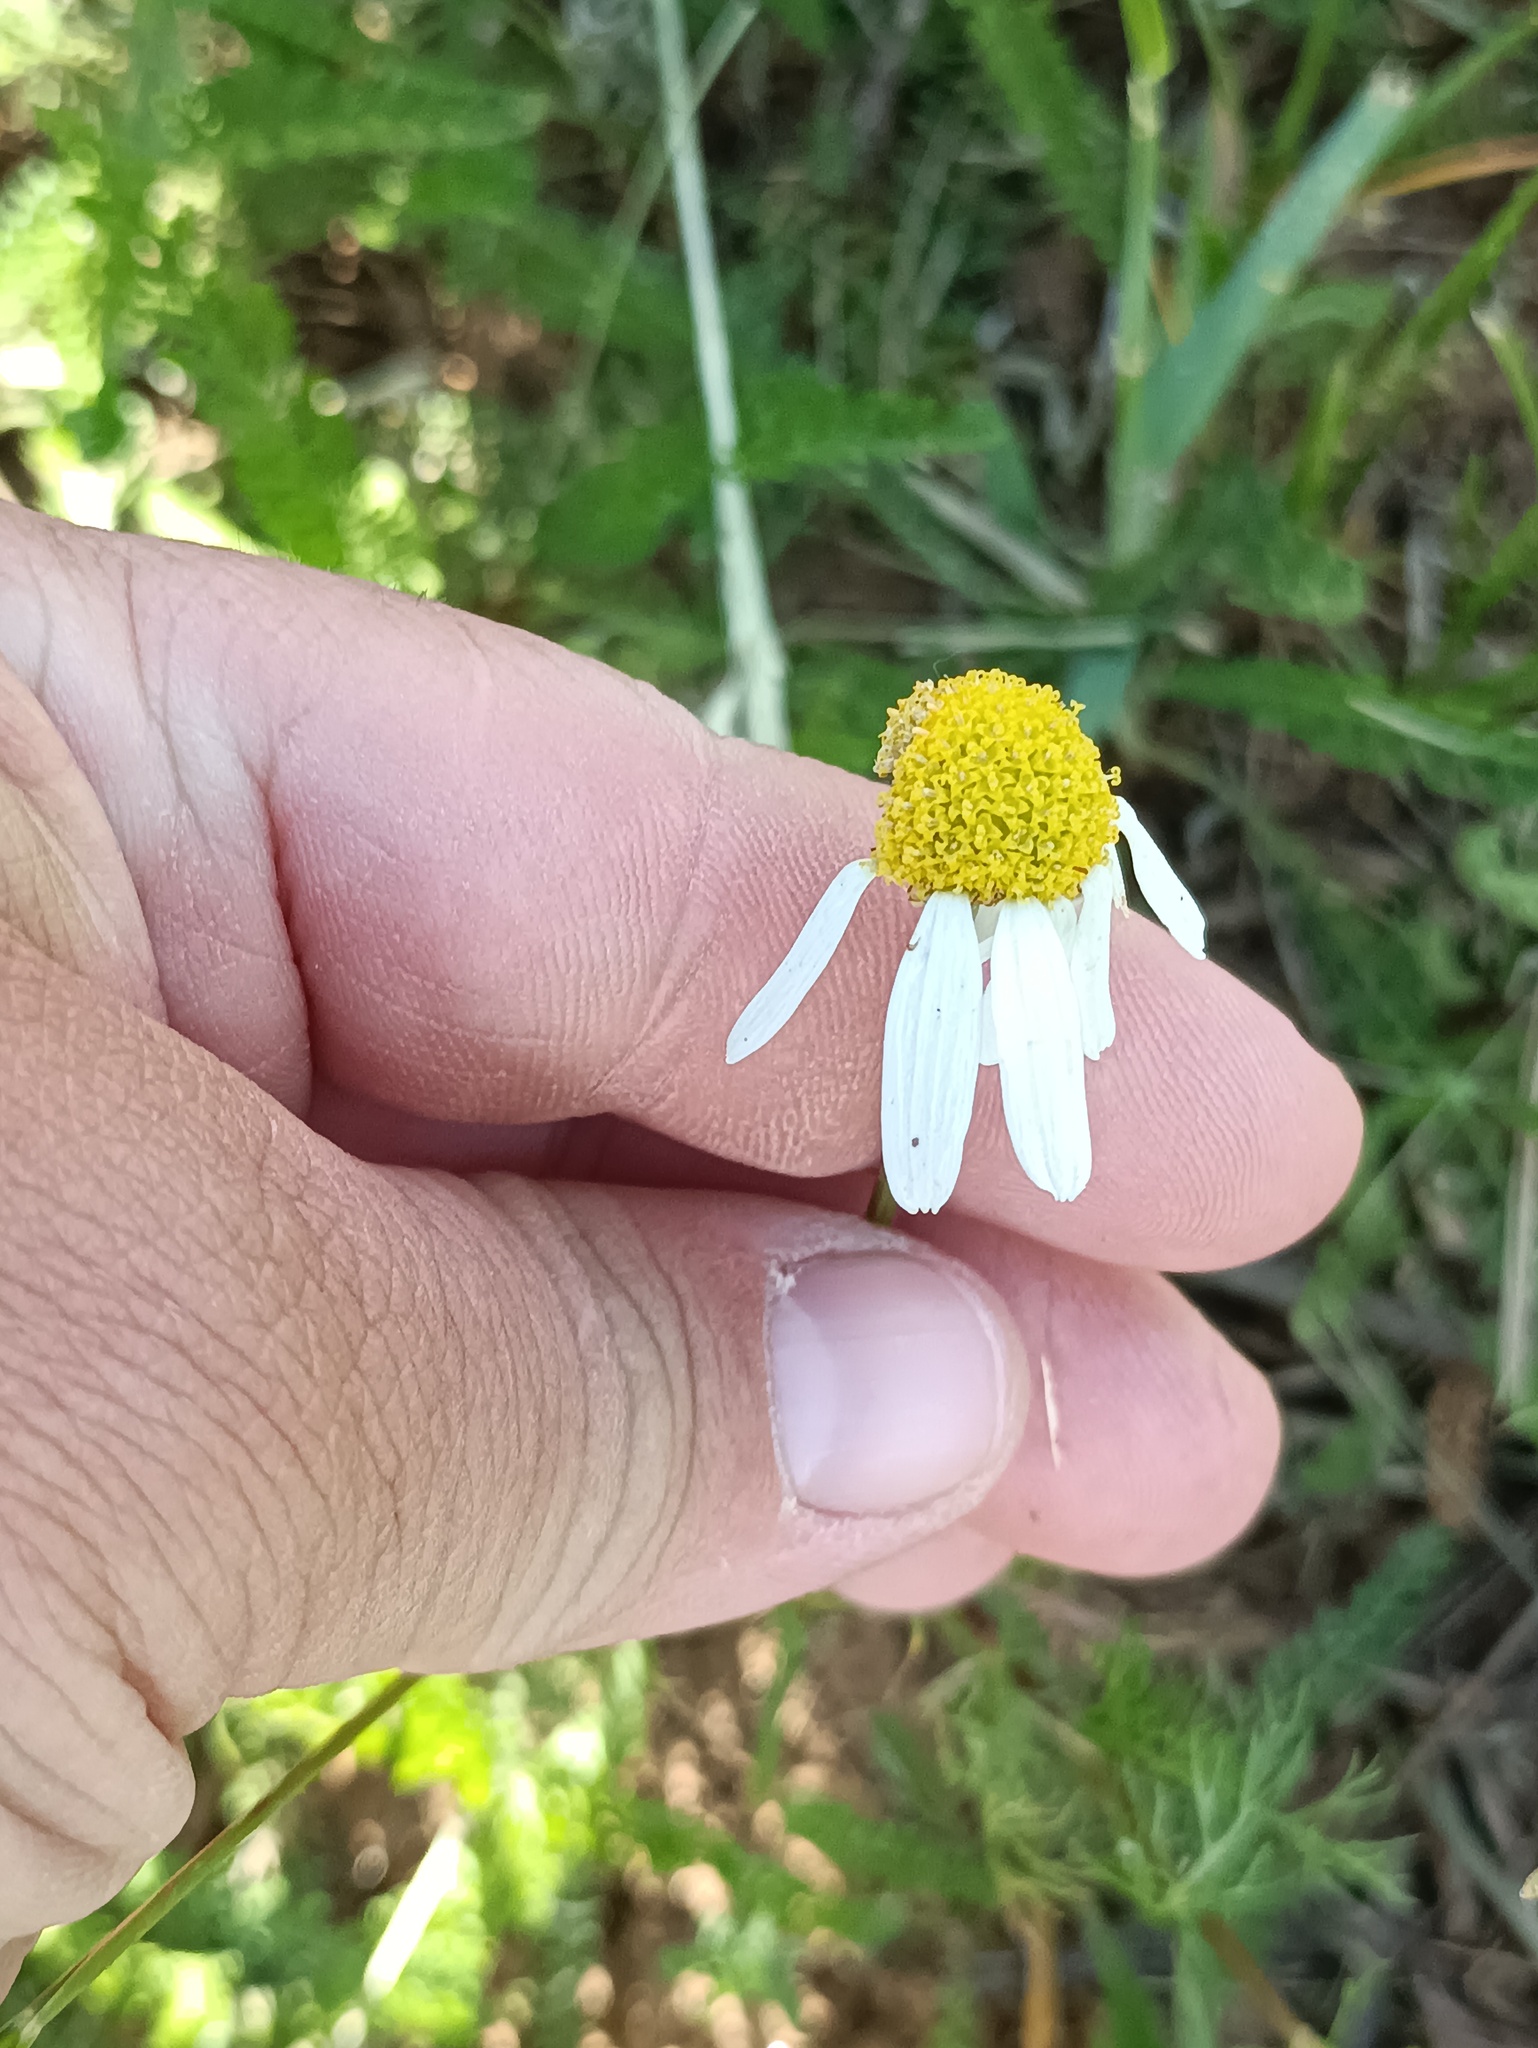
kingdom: Plantae
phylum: Tracheophyta
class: Magnoliopsida
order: Asterales
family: Asteraceae
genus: Tripleurospermum
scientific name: Tripleurospermum inodorum
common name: Scentless mayweed
